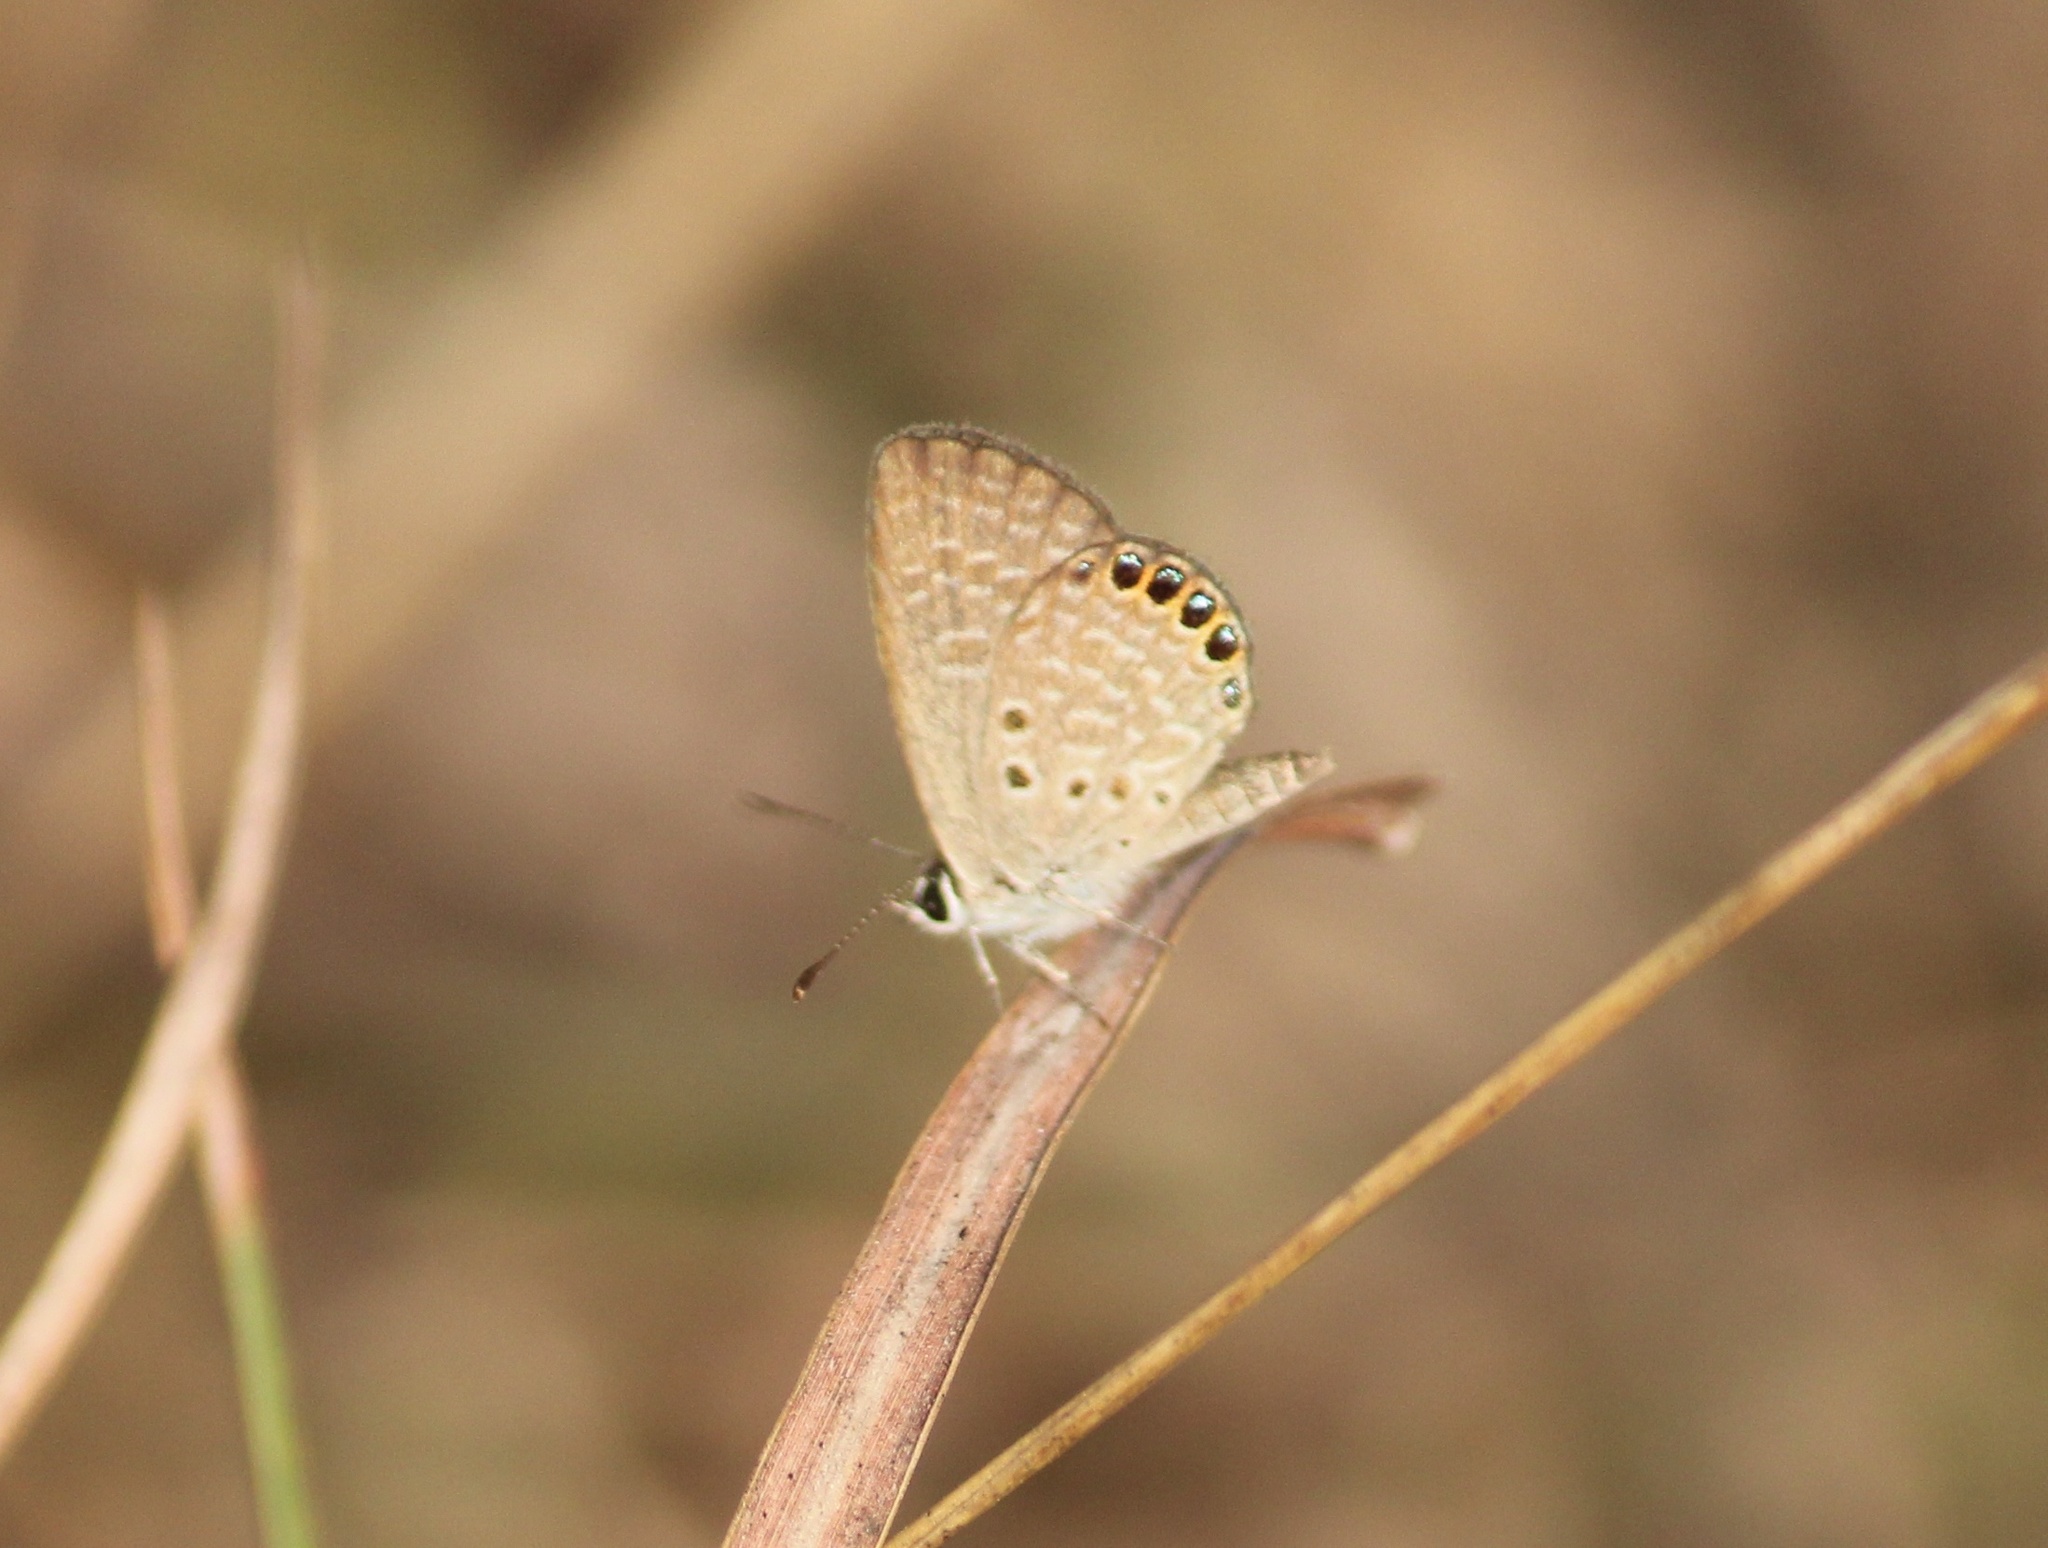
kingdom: Animalia
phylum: Arthropoda
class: Insecta
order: Lepidoptera
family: Lycaenidae
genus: Freyeria
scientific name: Freyeria putli
